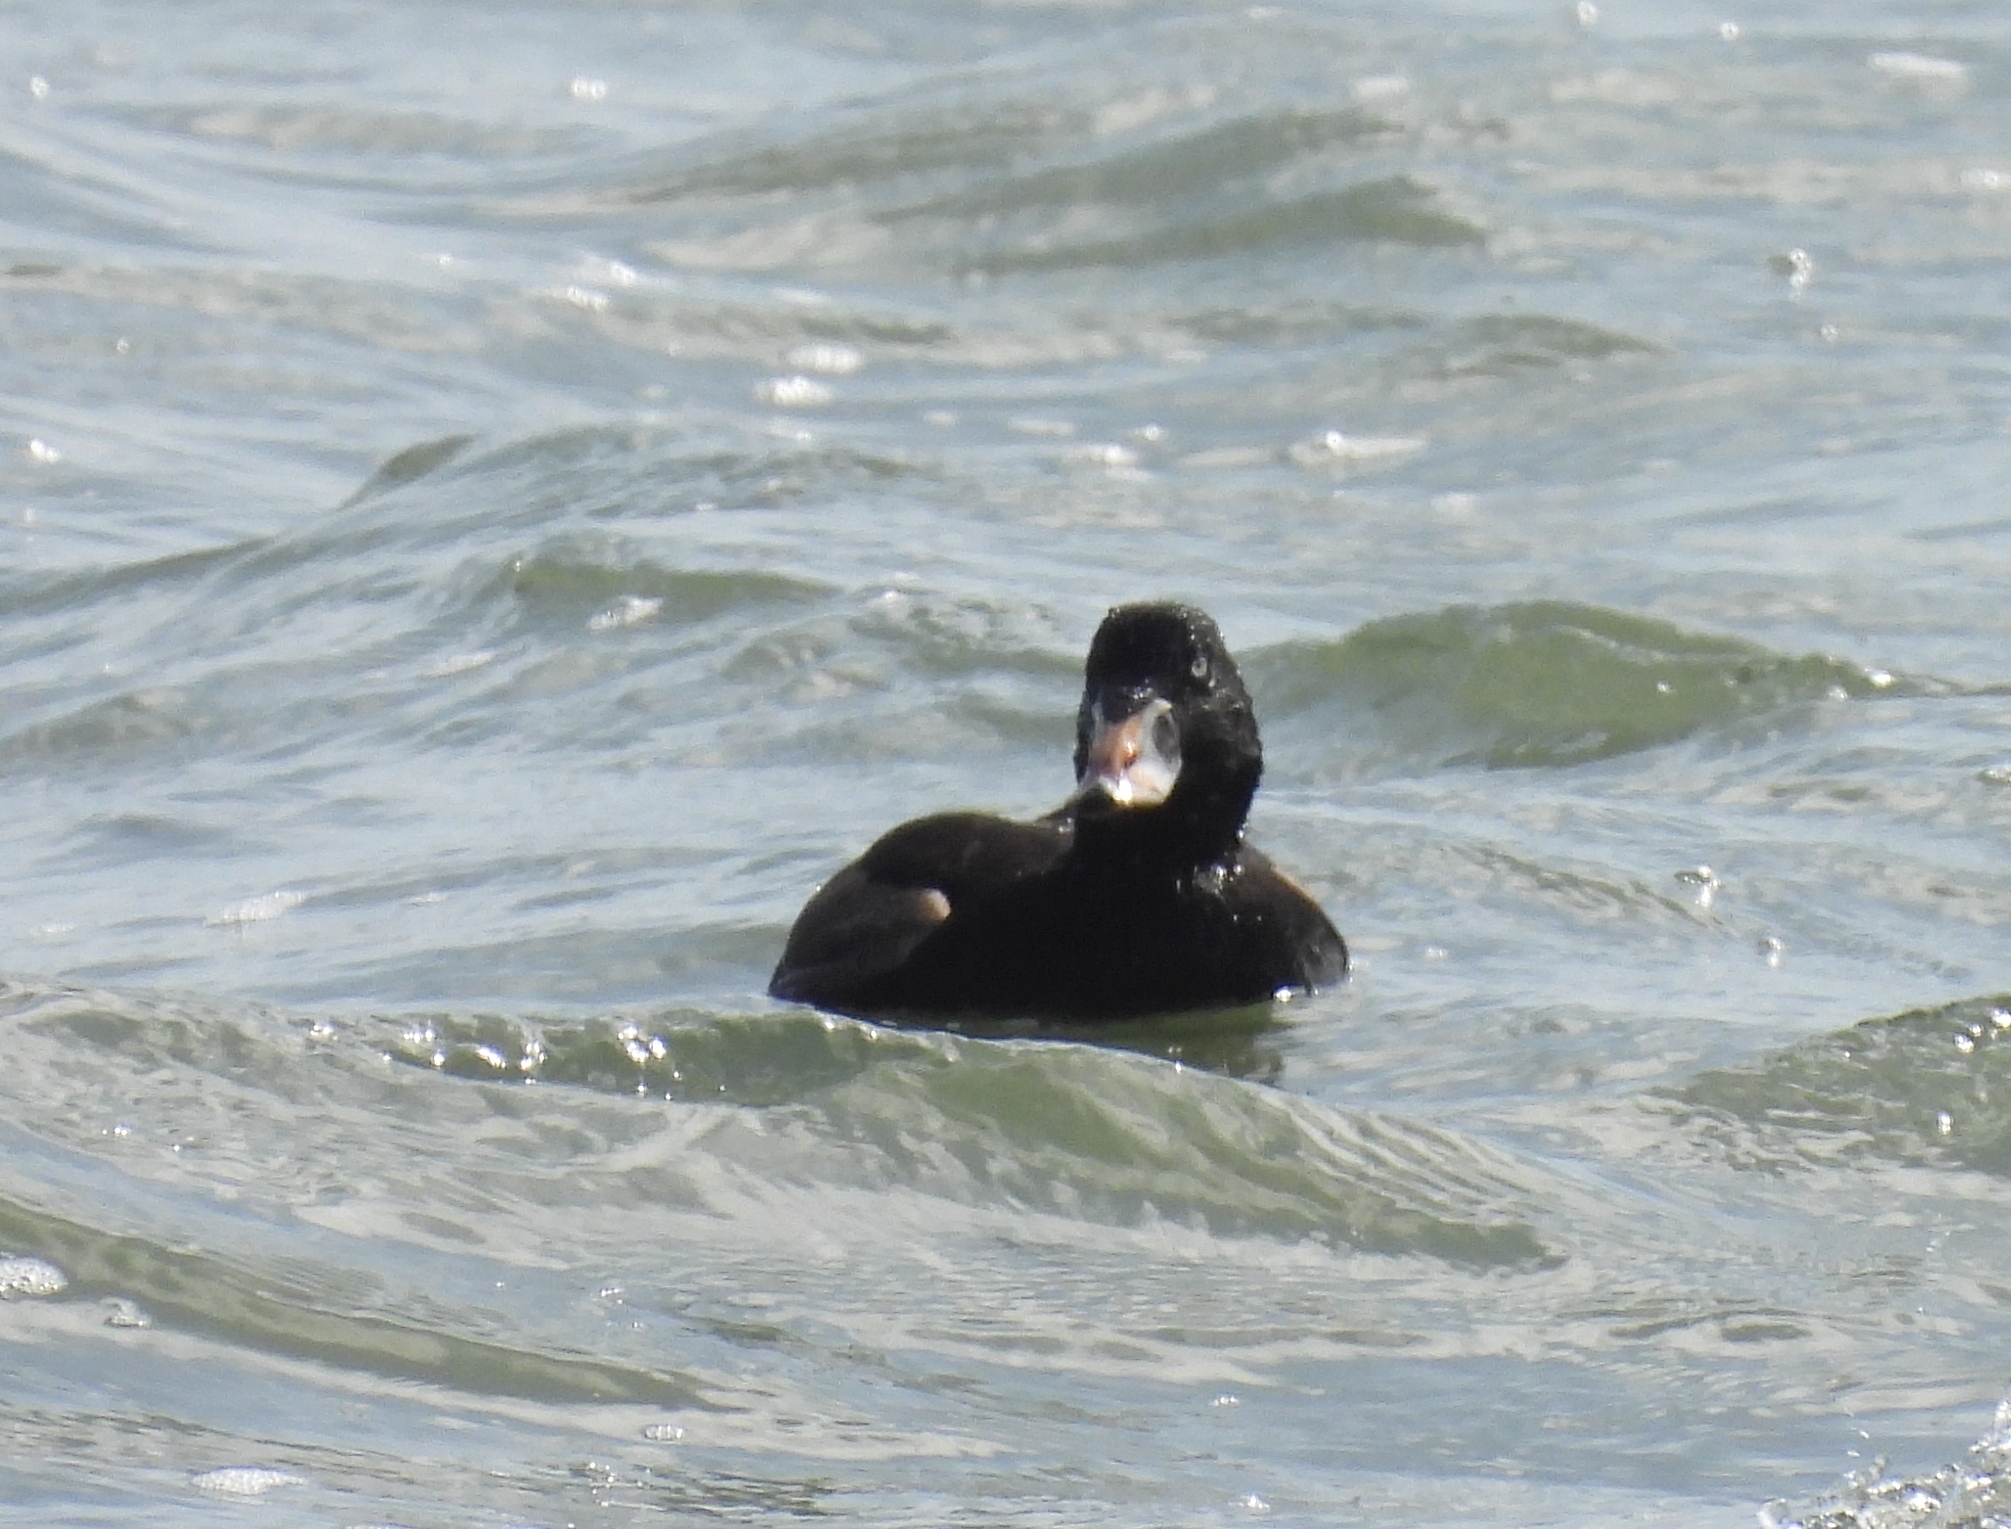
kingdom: Animalia
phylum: Chordata
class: Aves
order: Anseriformes
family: Anatidae
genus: Melanitta
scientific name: Melanitta perspicillata
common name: Surf scoter
